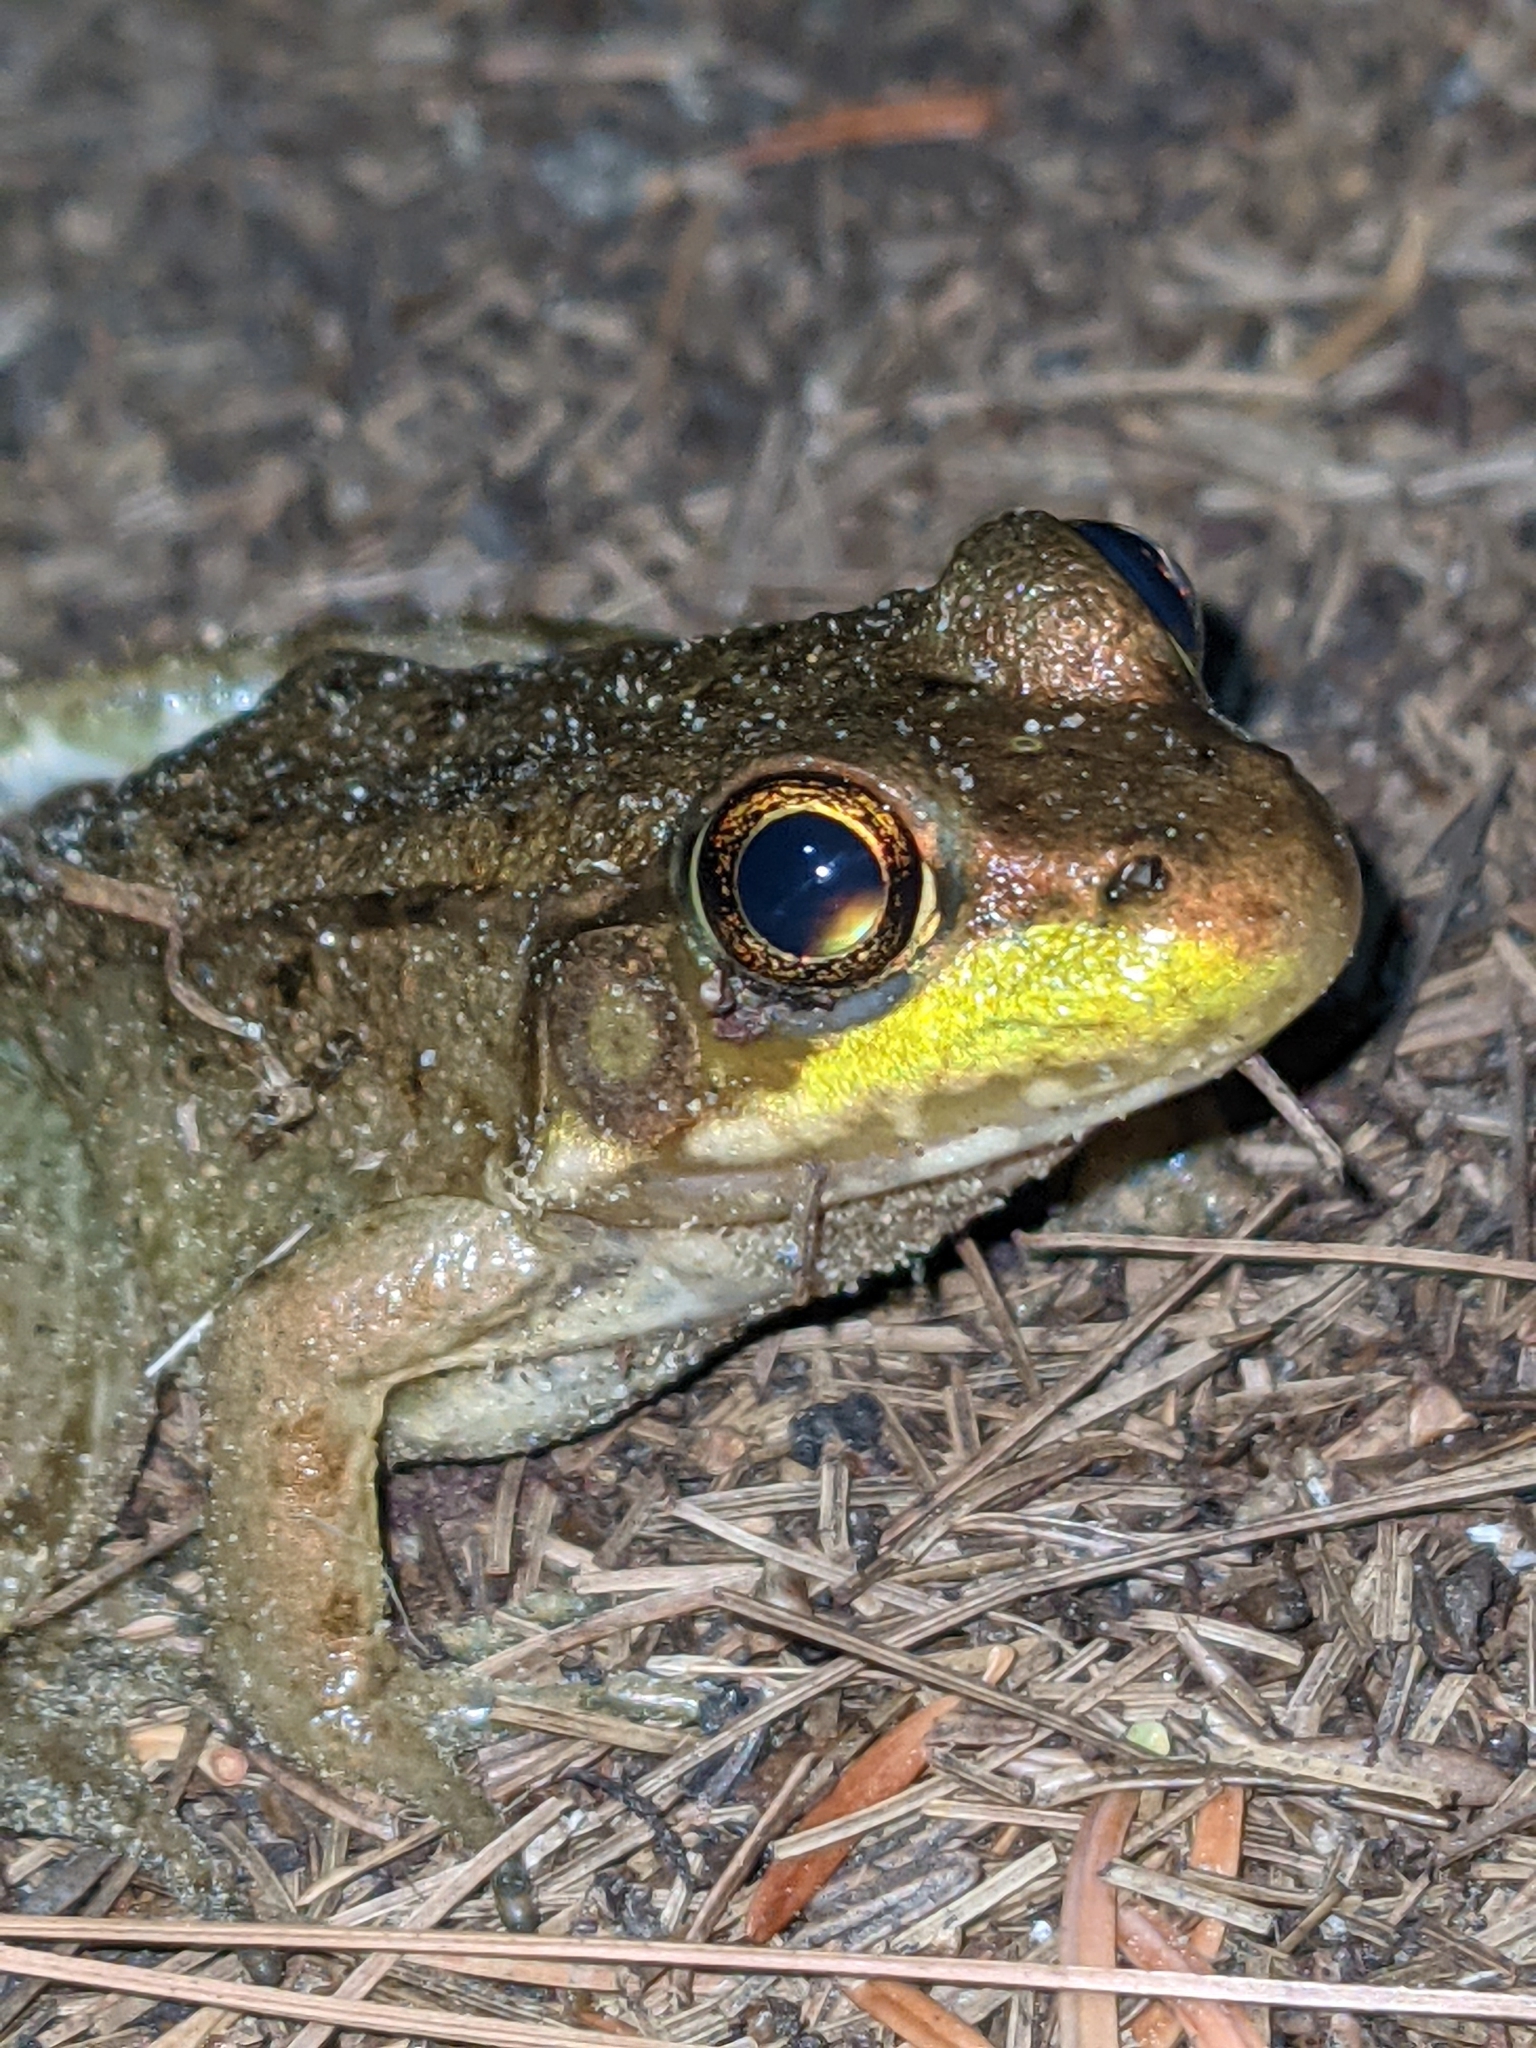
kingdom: Animalia
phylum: Chordata
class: Amphibia
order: Anura
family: Ranidae
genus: Lithobates
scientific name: Lithobates clamitans
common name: Green frog
